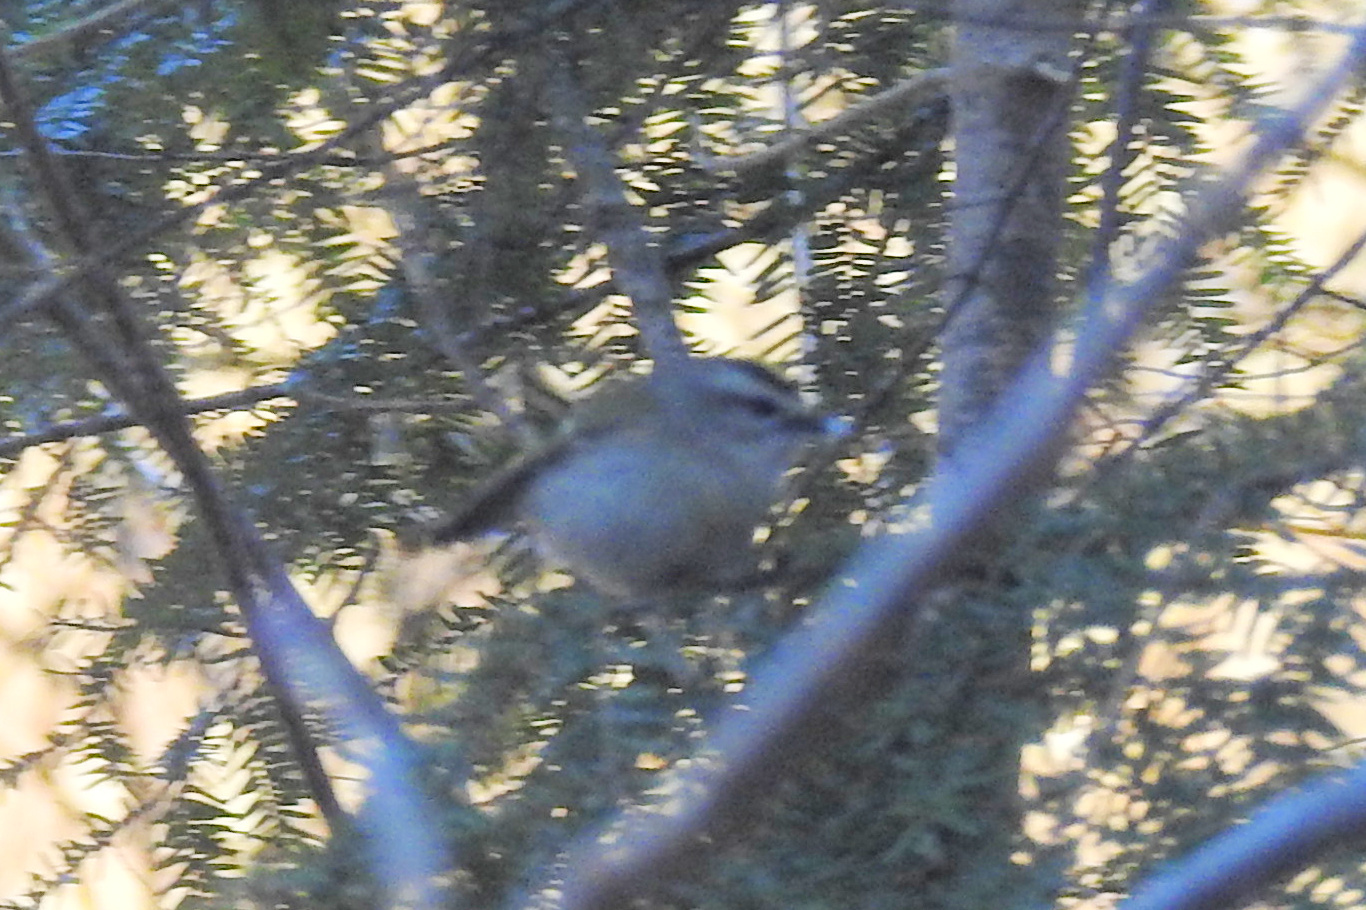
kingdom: Animalia
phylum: Chordata
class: Aves
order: Passeriformes
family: Regulidae
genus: Regulus
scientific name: Regulus satrapa
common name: Golden-crowned kinglet
